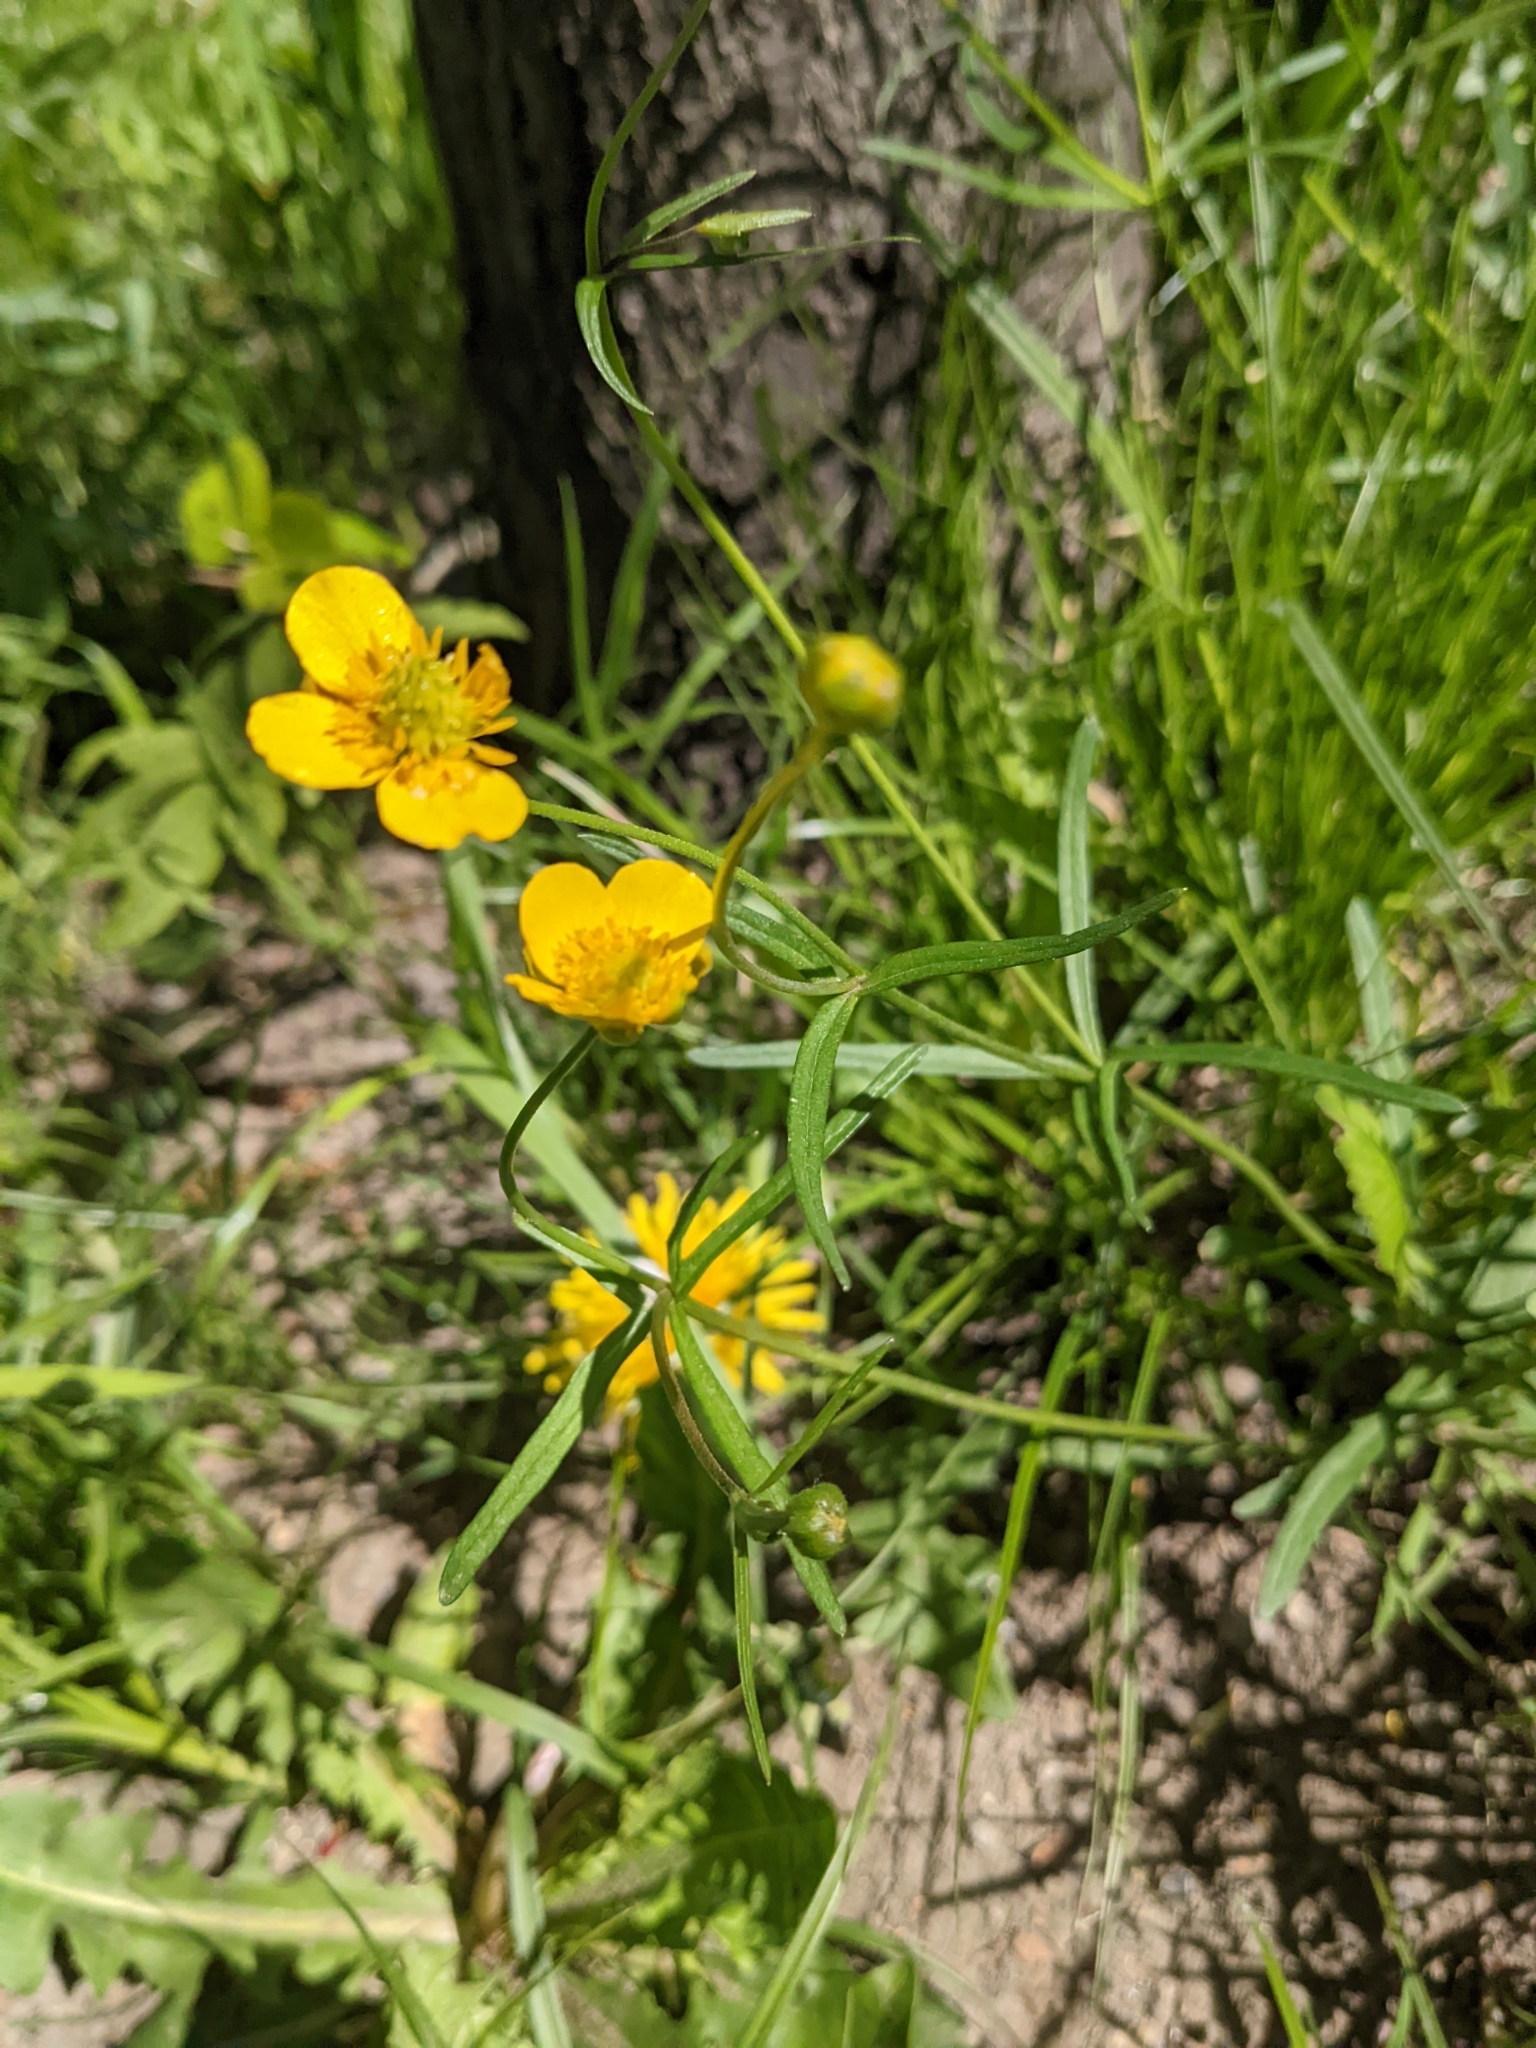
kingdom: Plantae
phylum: Tracheophyta
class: Magnoliopsida
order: Ranunculales
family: Ranunculaceae
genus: Ranunculus
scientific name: Ranunculus auricomus
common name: Goldilocks buttercup
